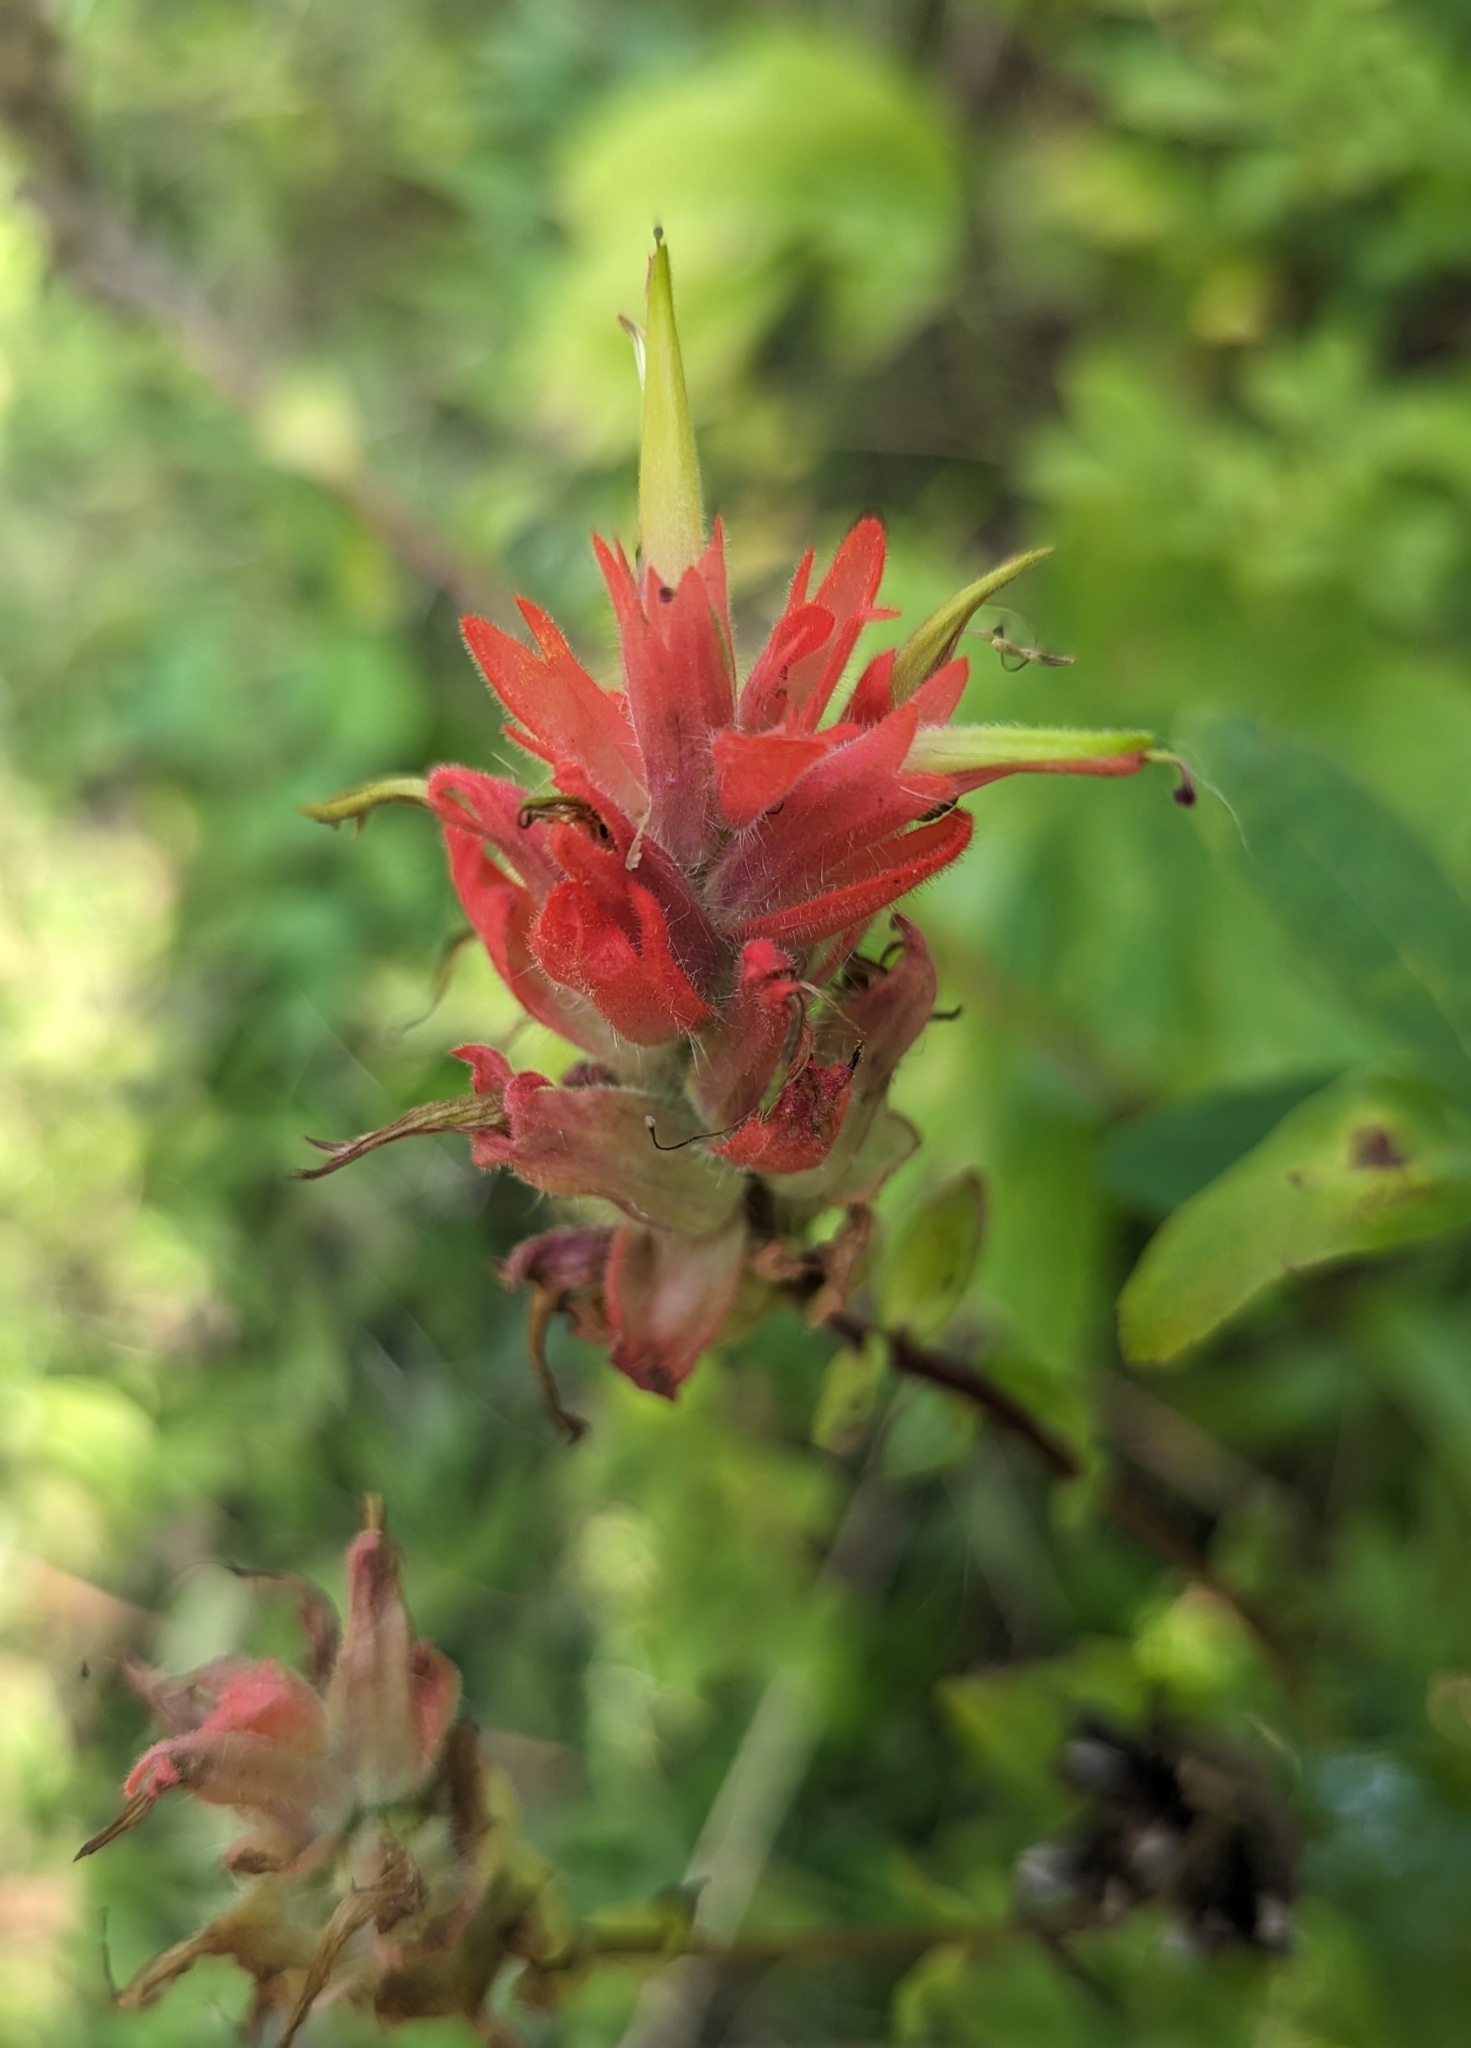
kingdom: Plantae
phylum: Tracheophyta
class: Magnoliopsida
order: Lamiales
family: Orobanchaceae
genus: Castilleja
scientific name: Castilleja miniata
